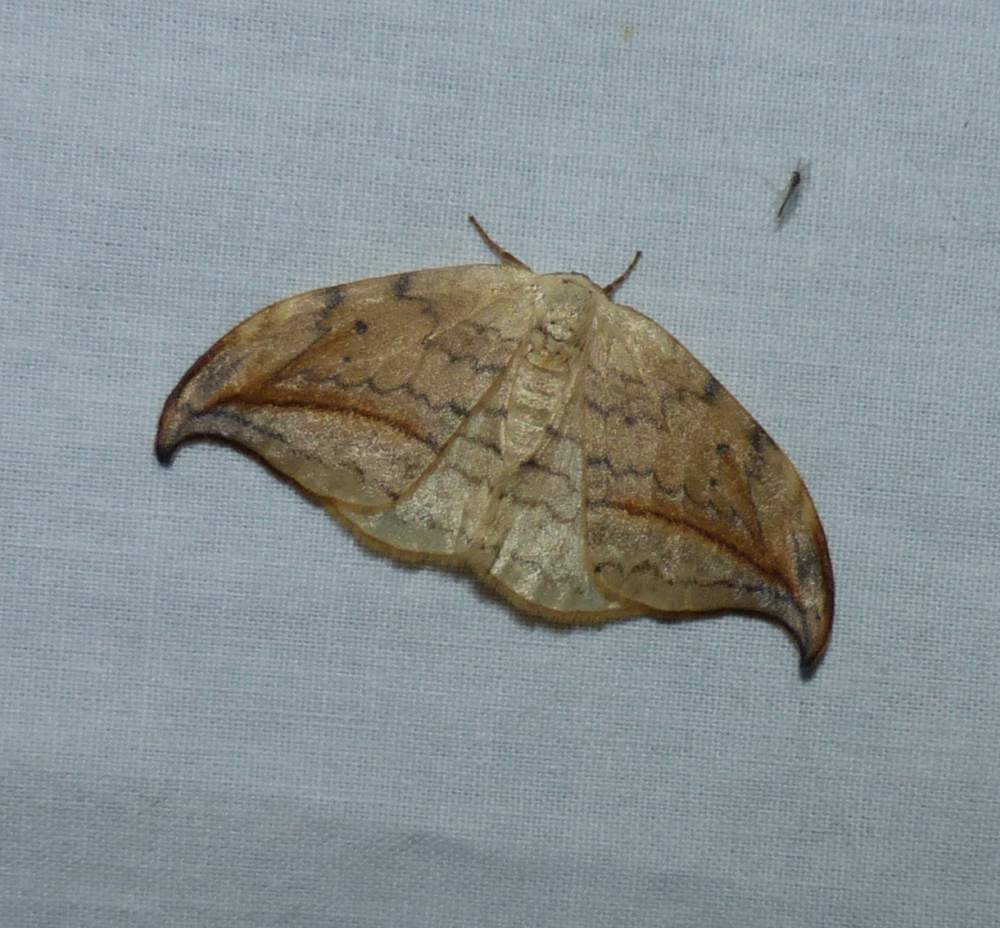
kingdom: Animalia
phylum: Arthropoda
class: Insecta
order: Lepidoptera
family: Drepanidae
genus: Drepana
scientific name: Drepana arcuata
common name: Arched hooktip moth
